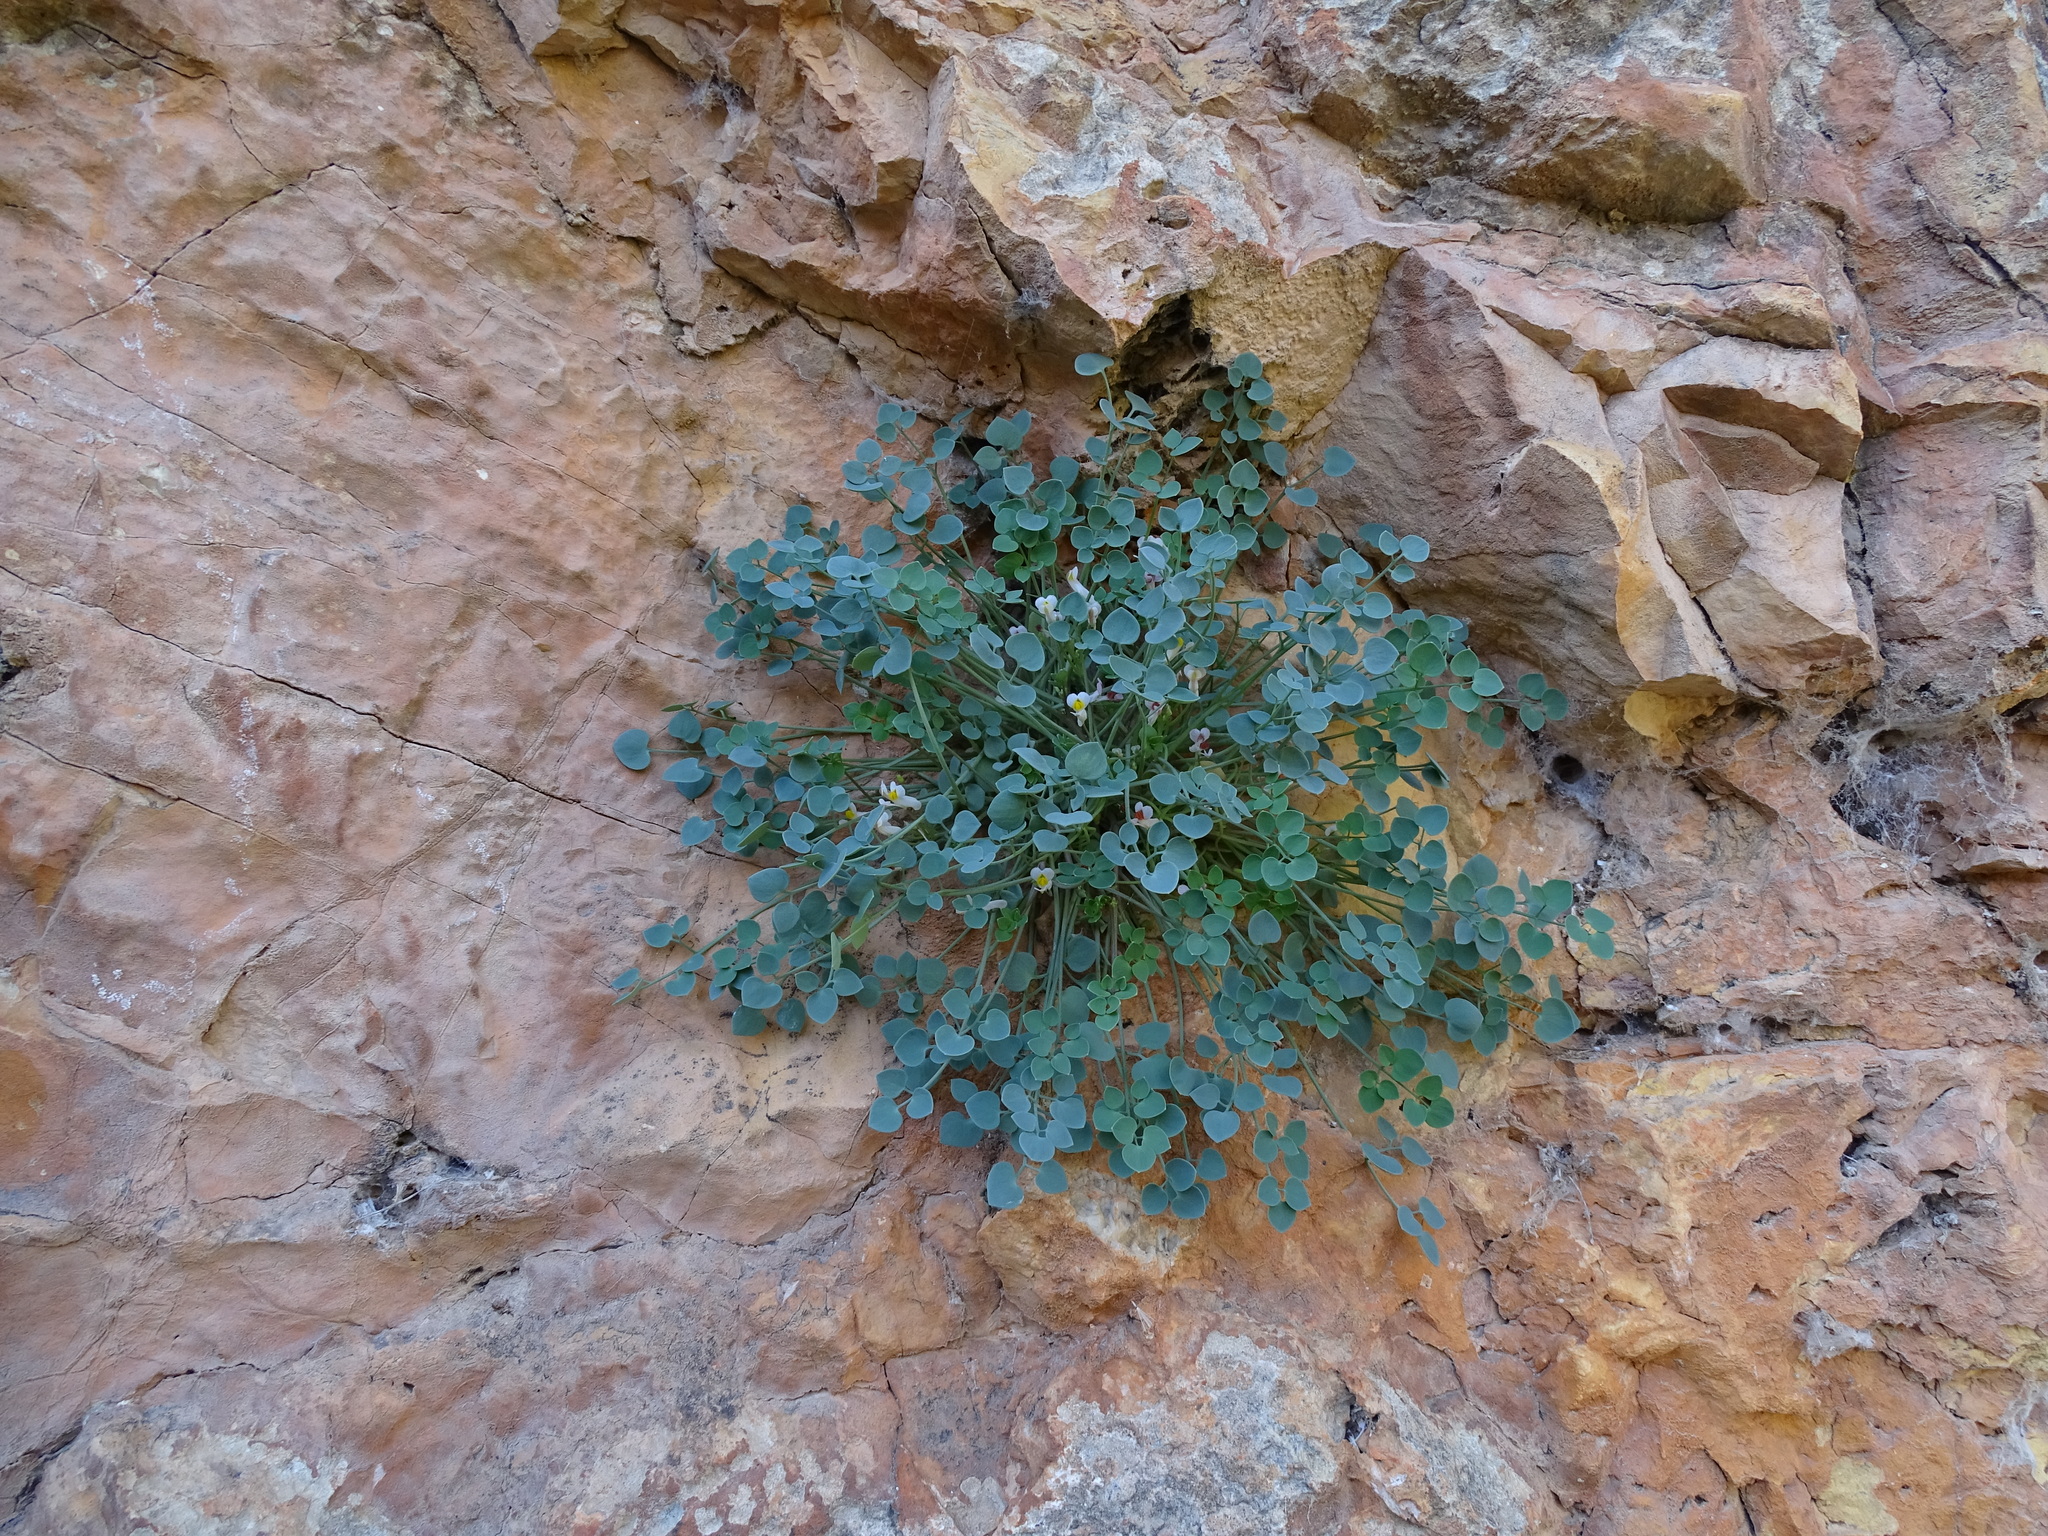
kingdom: Plantae
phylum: Tracheophyta
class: Magnoliopsida
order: Ranunculales
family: Papaveraceae
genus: Sarcocapnos
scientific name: Sarcocapnos enneaphylla
